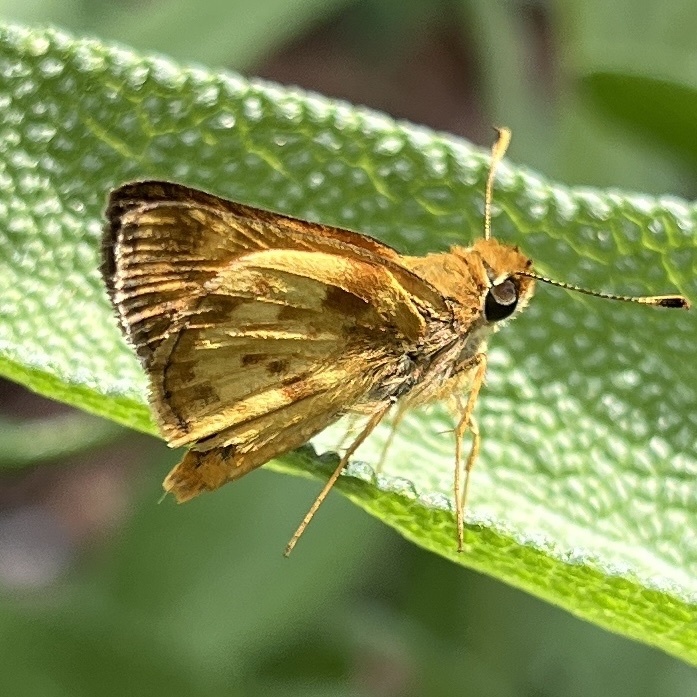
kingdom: Animalia
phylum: Arthropoda
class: Insecta
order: Lepidoptera
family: Hesperiidae
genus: Lon
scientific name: Lon zabulon
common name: Zabulon skipper
